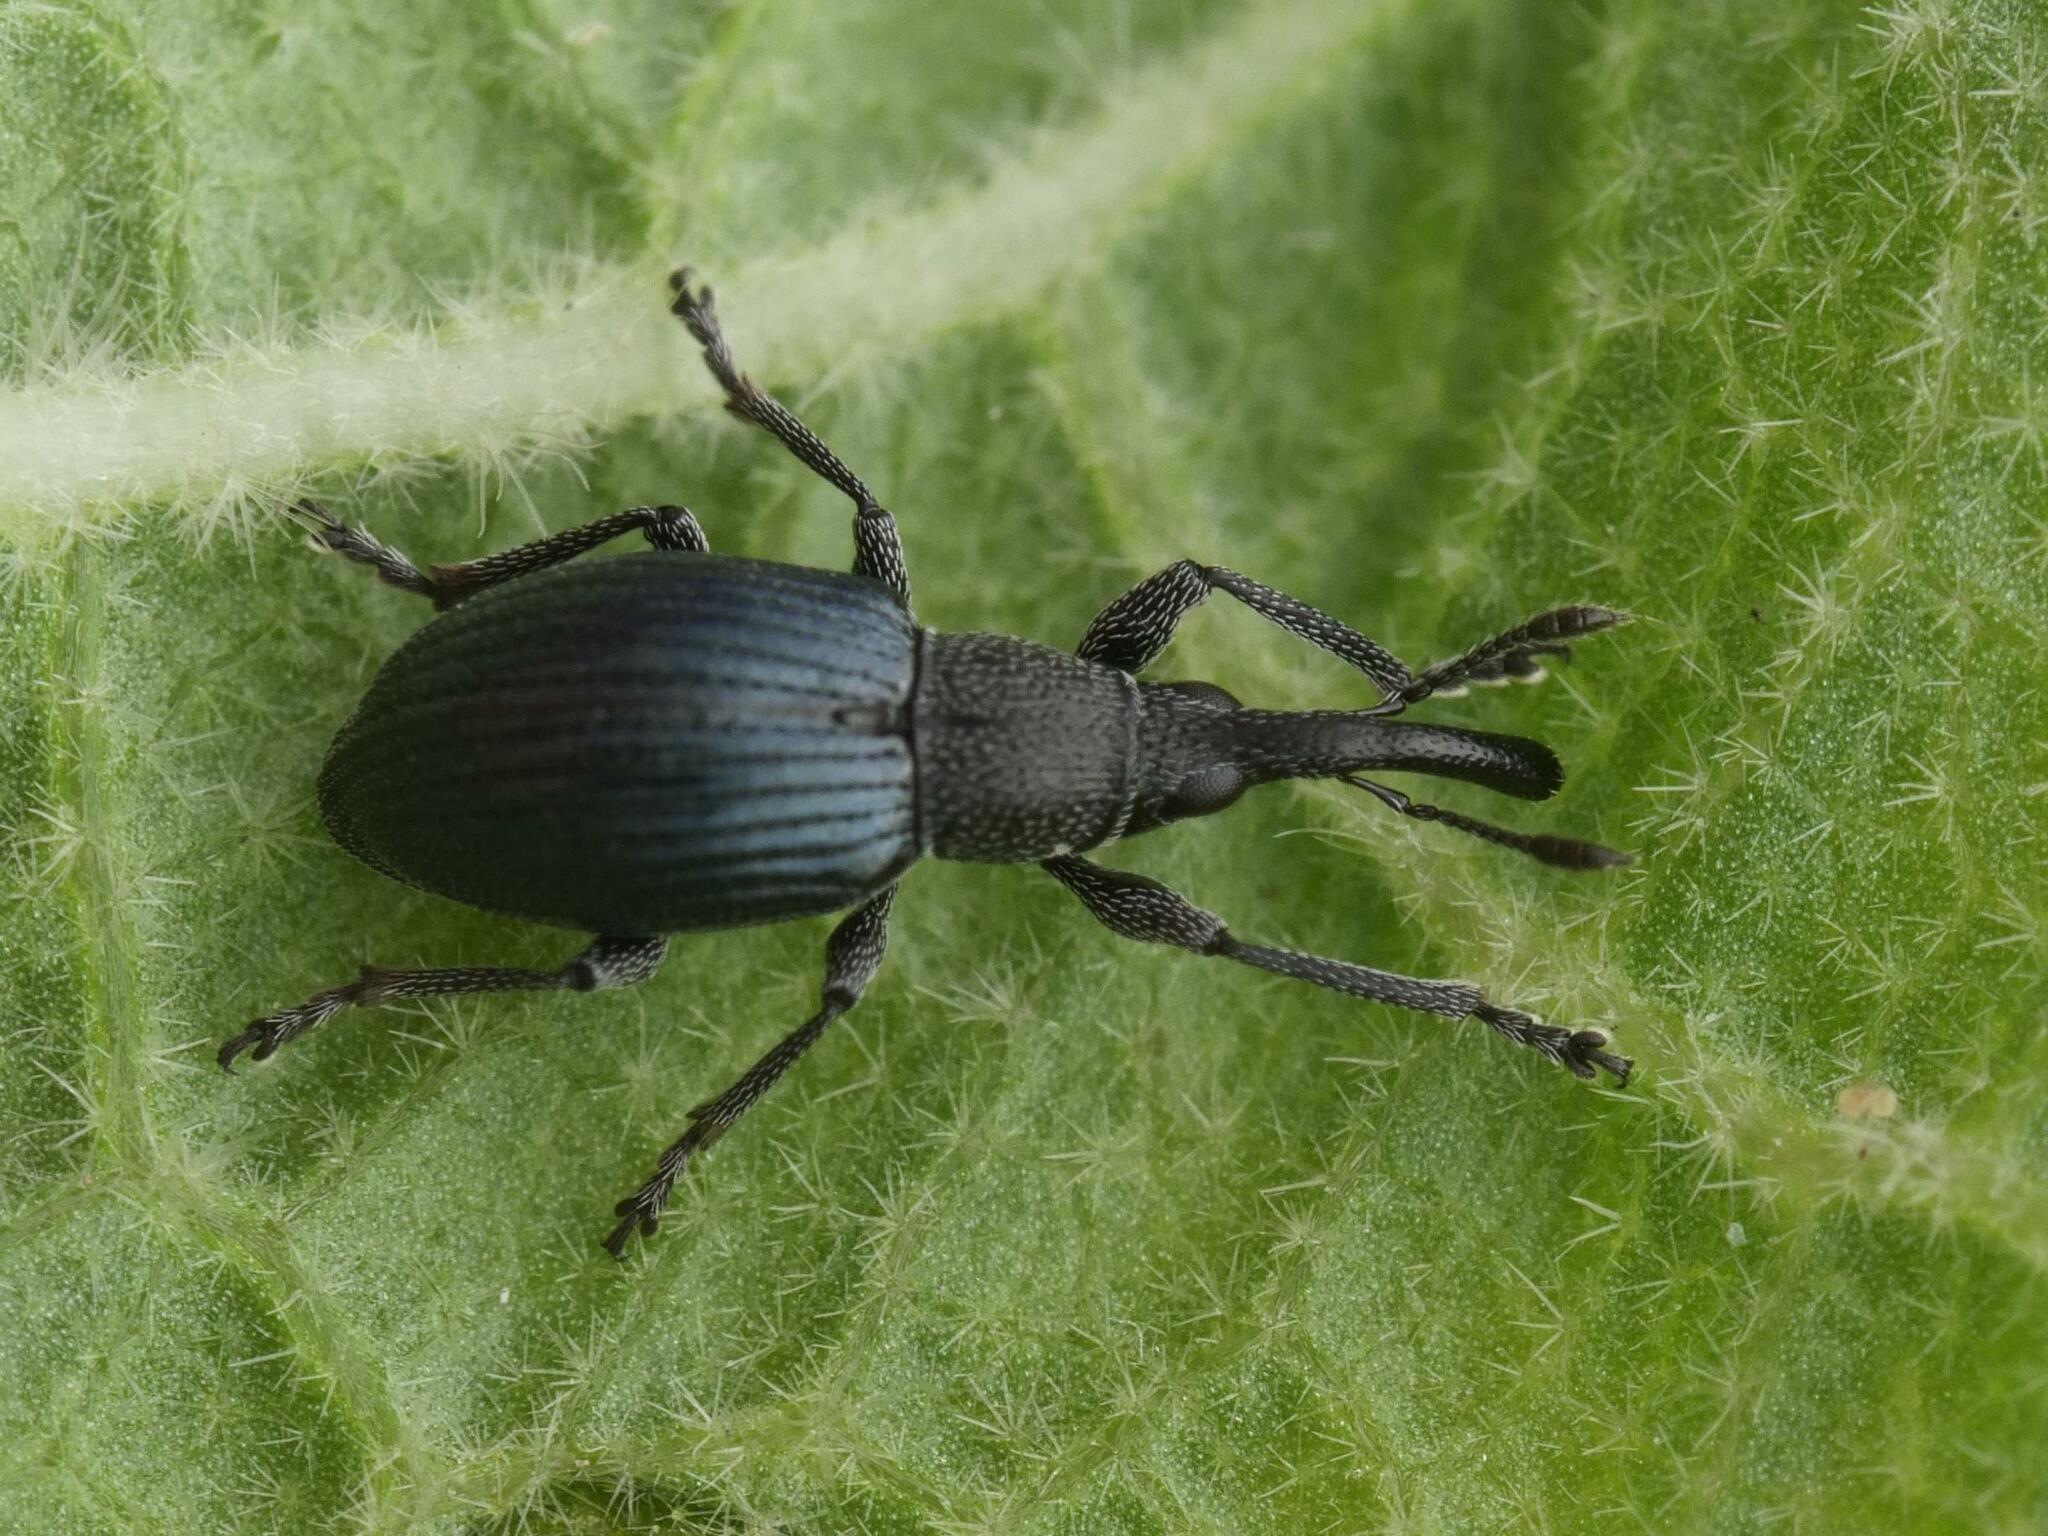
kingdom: Animalia
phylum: Arthropoda
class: Insecta
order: Coleoptera
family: Apionidae
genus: Aspidapion
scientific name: Aspidapion radiolus
